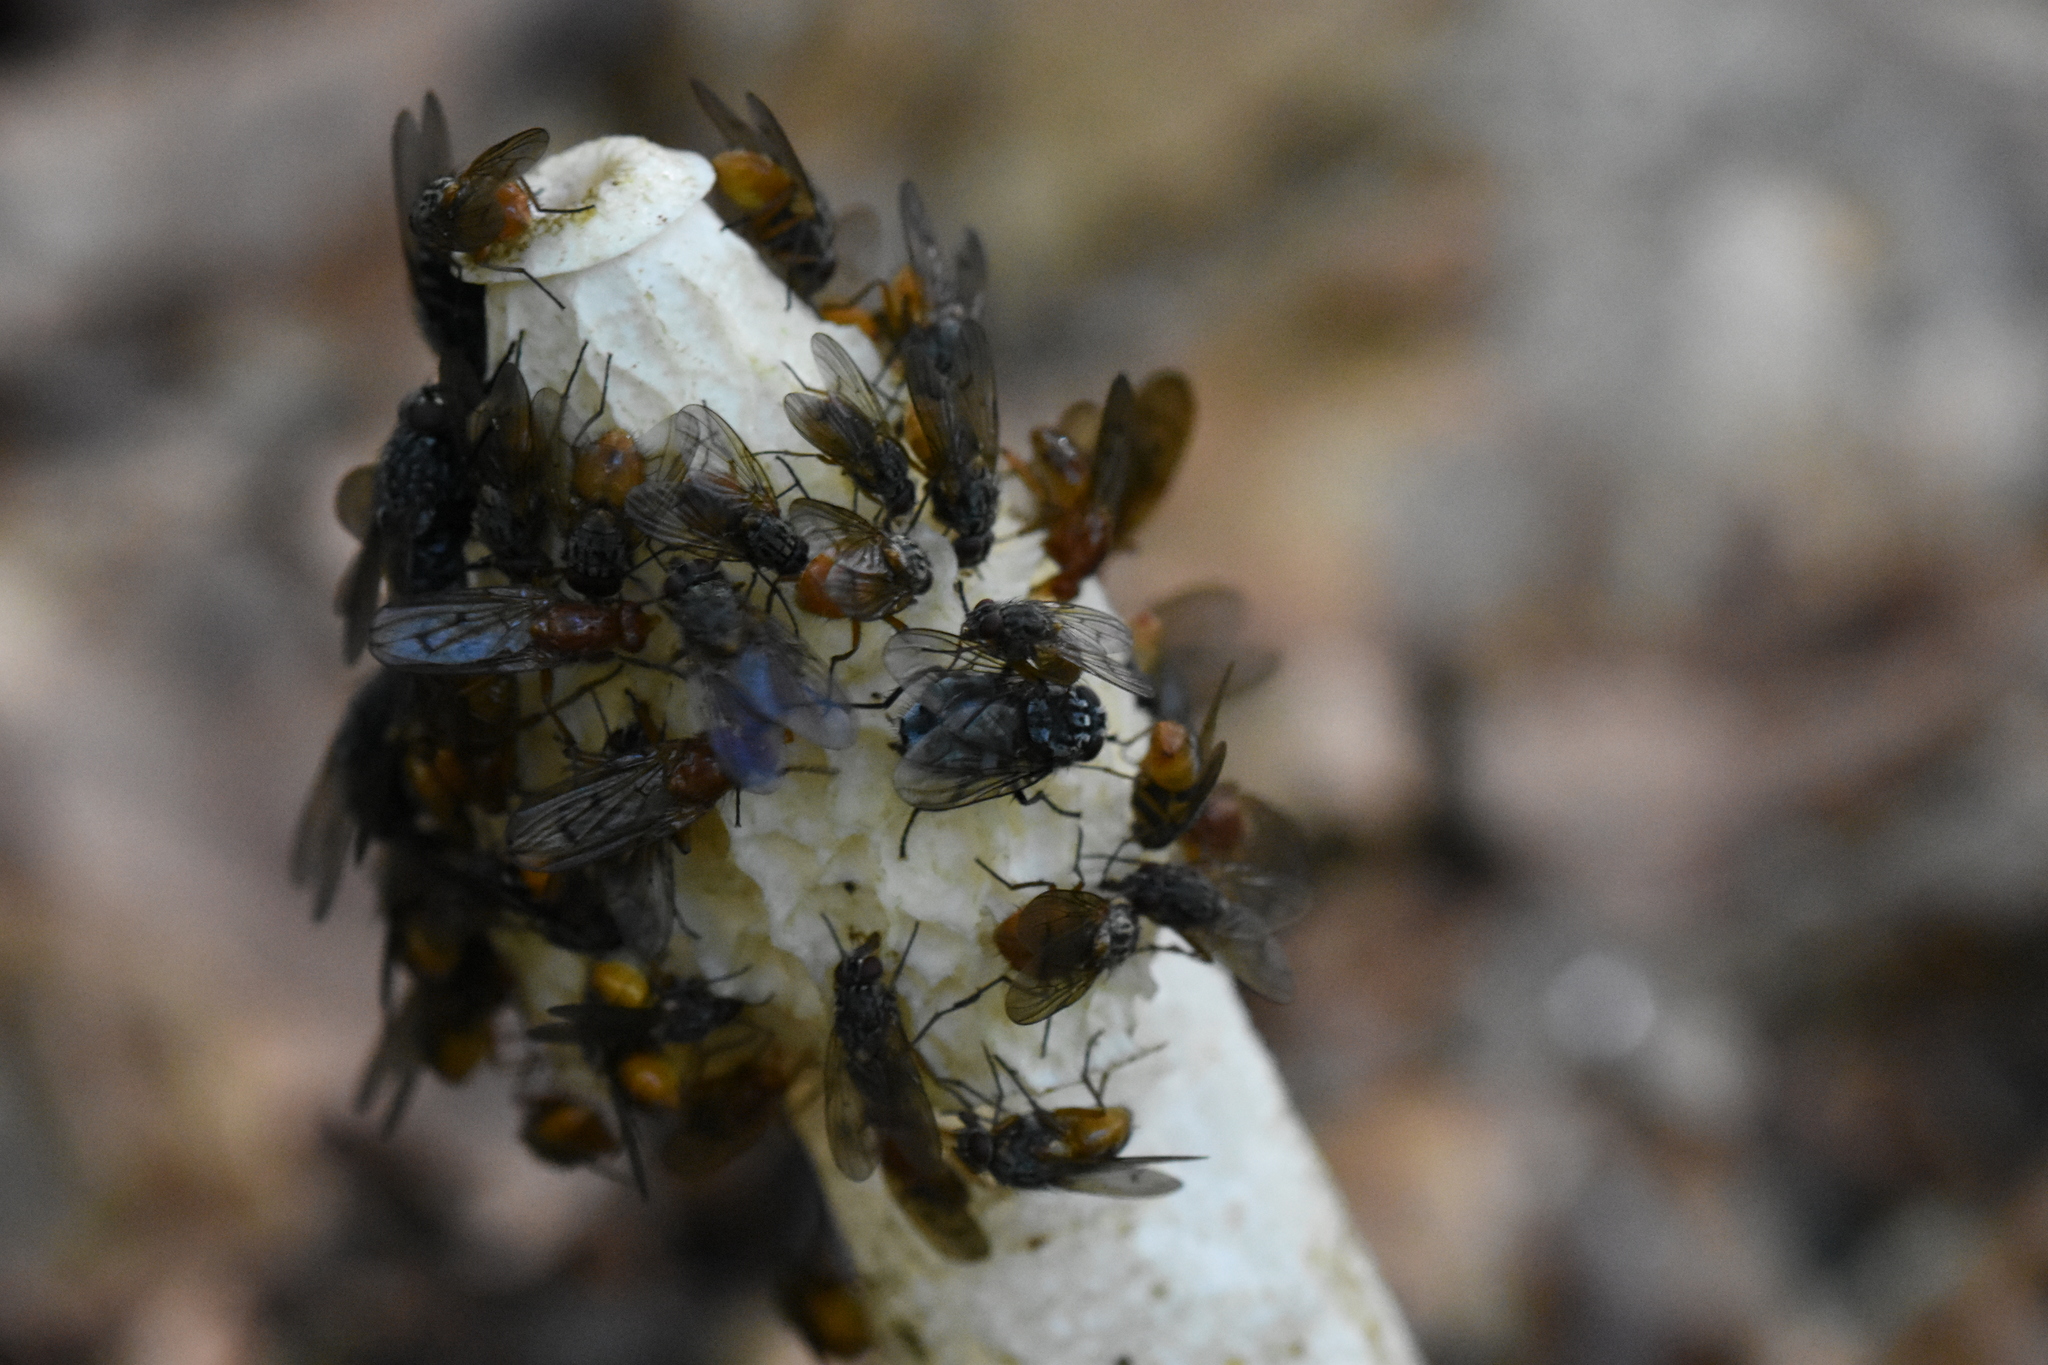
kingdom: Fungi
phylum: Basidiomycota
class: Agaricomycetes
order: Phallales
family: Phallaceae
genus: Phallus
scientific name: Phallus impudicus
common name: Common stinkhorn
